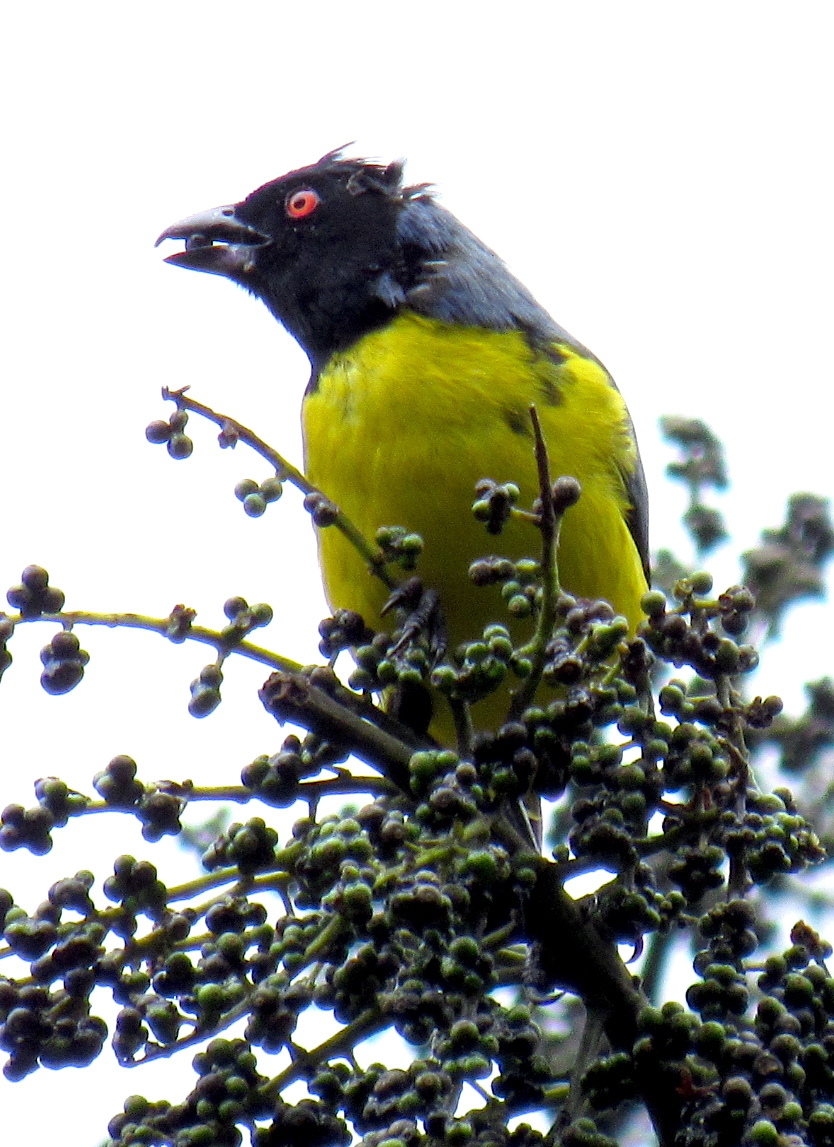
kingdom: Animalia
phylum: Chordata
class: Aves
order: Passeriformes
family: Thraupidae
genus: Buthraupis
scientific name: Buthraupis montana
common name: Hooded mountain tanager
